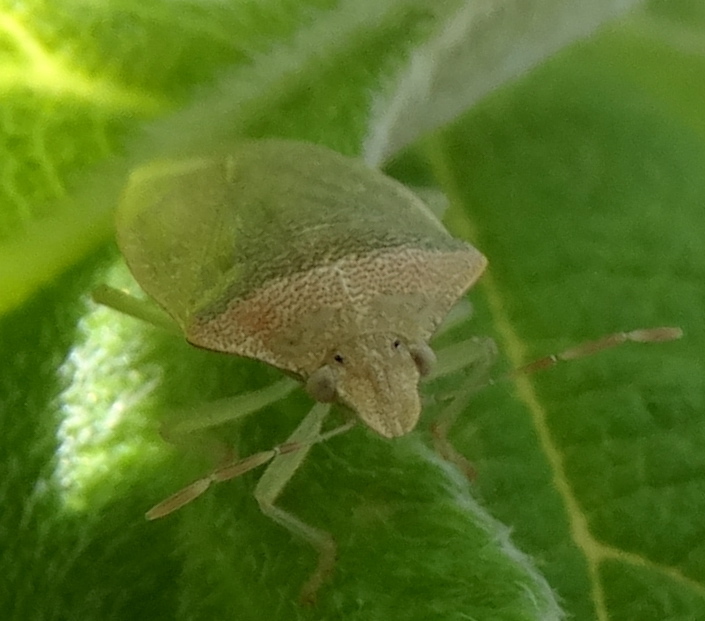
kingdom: Animalia
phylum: Arthropoda
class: Insecta
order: Hemiptera
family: Pentatomidae
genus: Thyanta
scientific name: Thyanta
